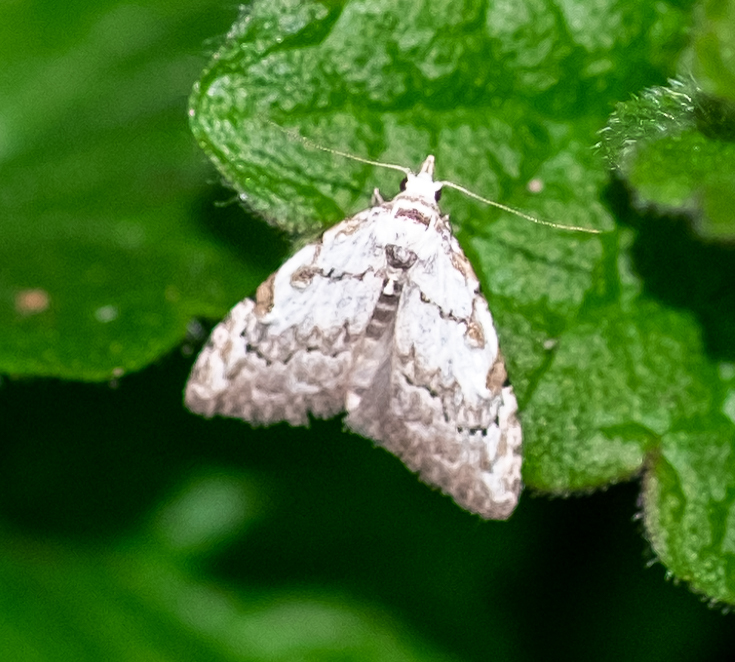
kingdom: Animalia
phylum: Arthropoda
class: Insecta
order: Lepidoptera
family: Nolidae
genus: Nola
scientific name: Nola confusalis
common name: Least black arches
